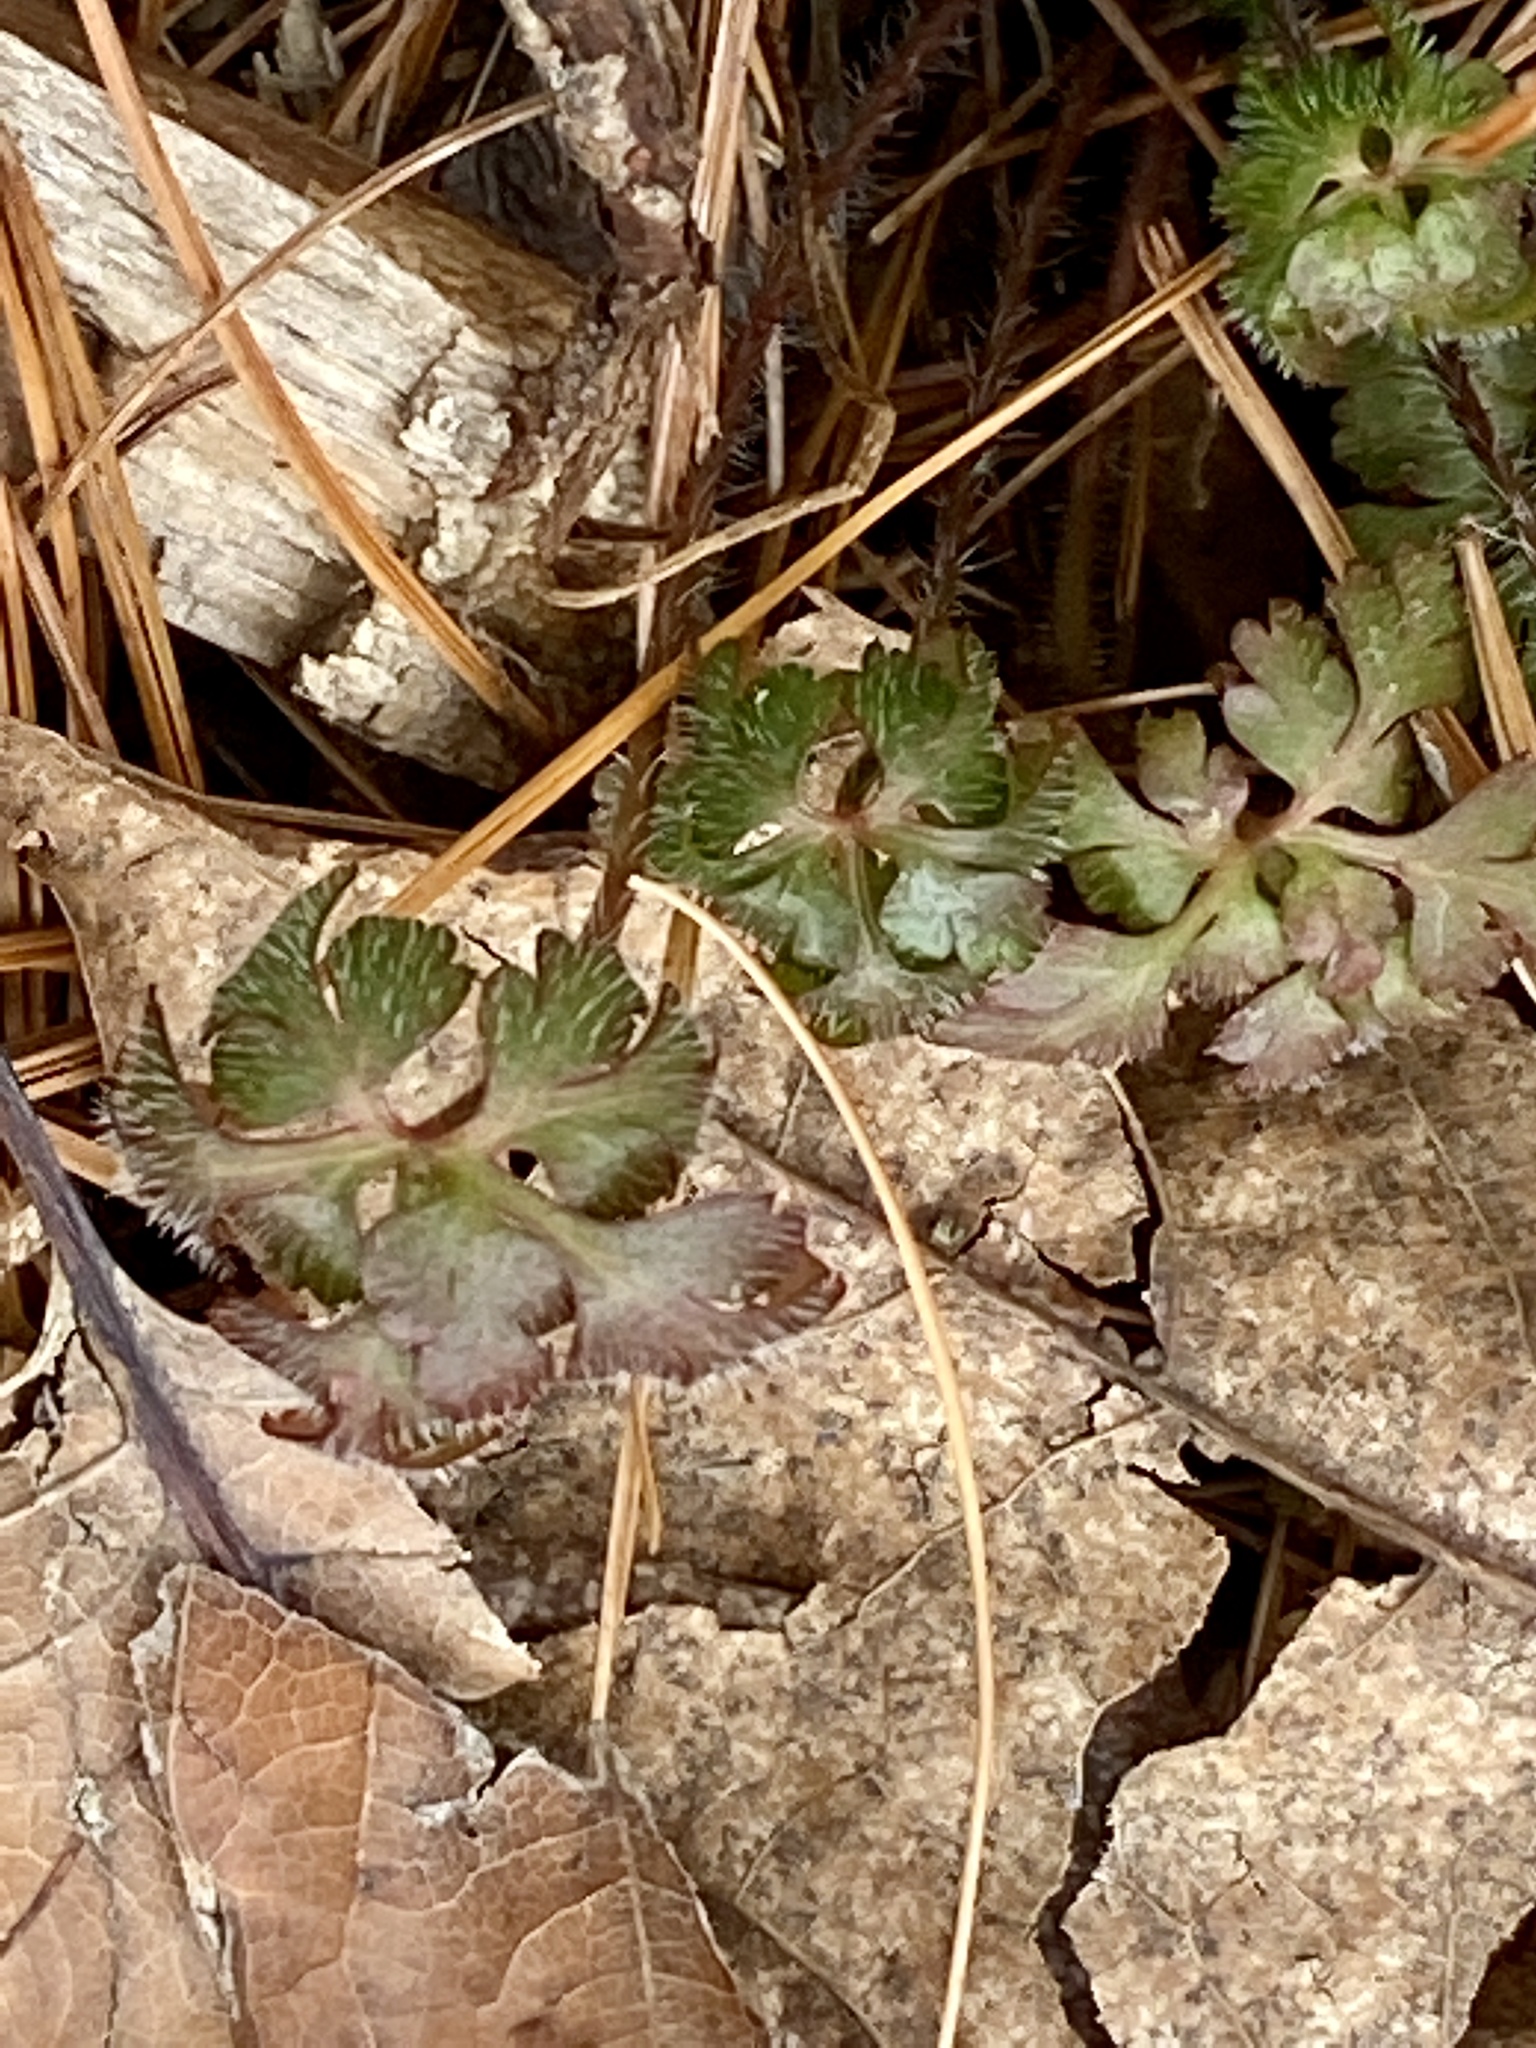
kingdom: Plantae
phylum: Tracheophyta
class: Magnoliopsida
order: Geraniales
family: Geraniaceae
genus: Geranium
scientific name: Geranium robertianum
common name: Herb-robert
